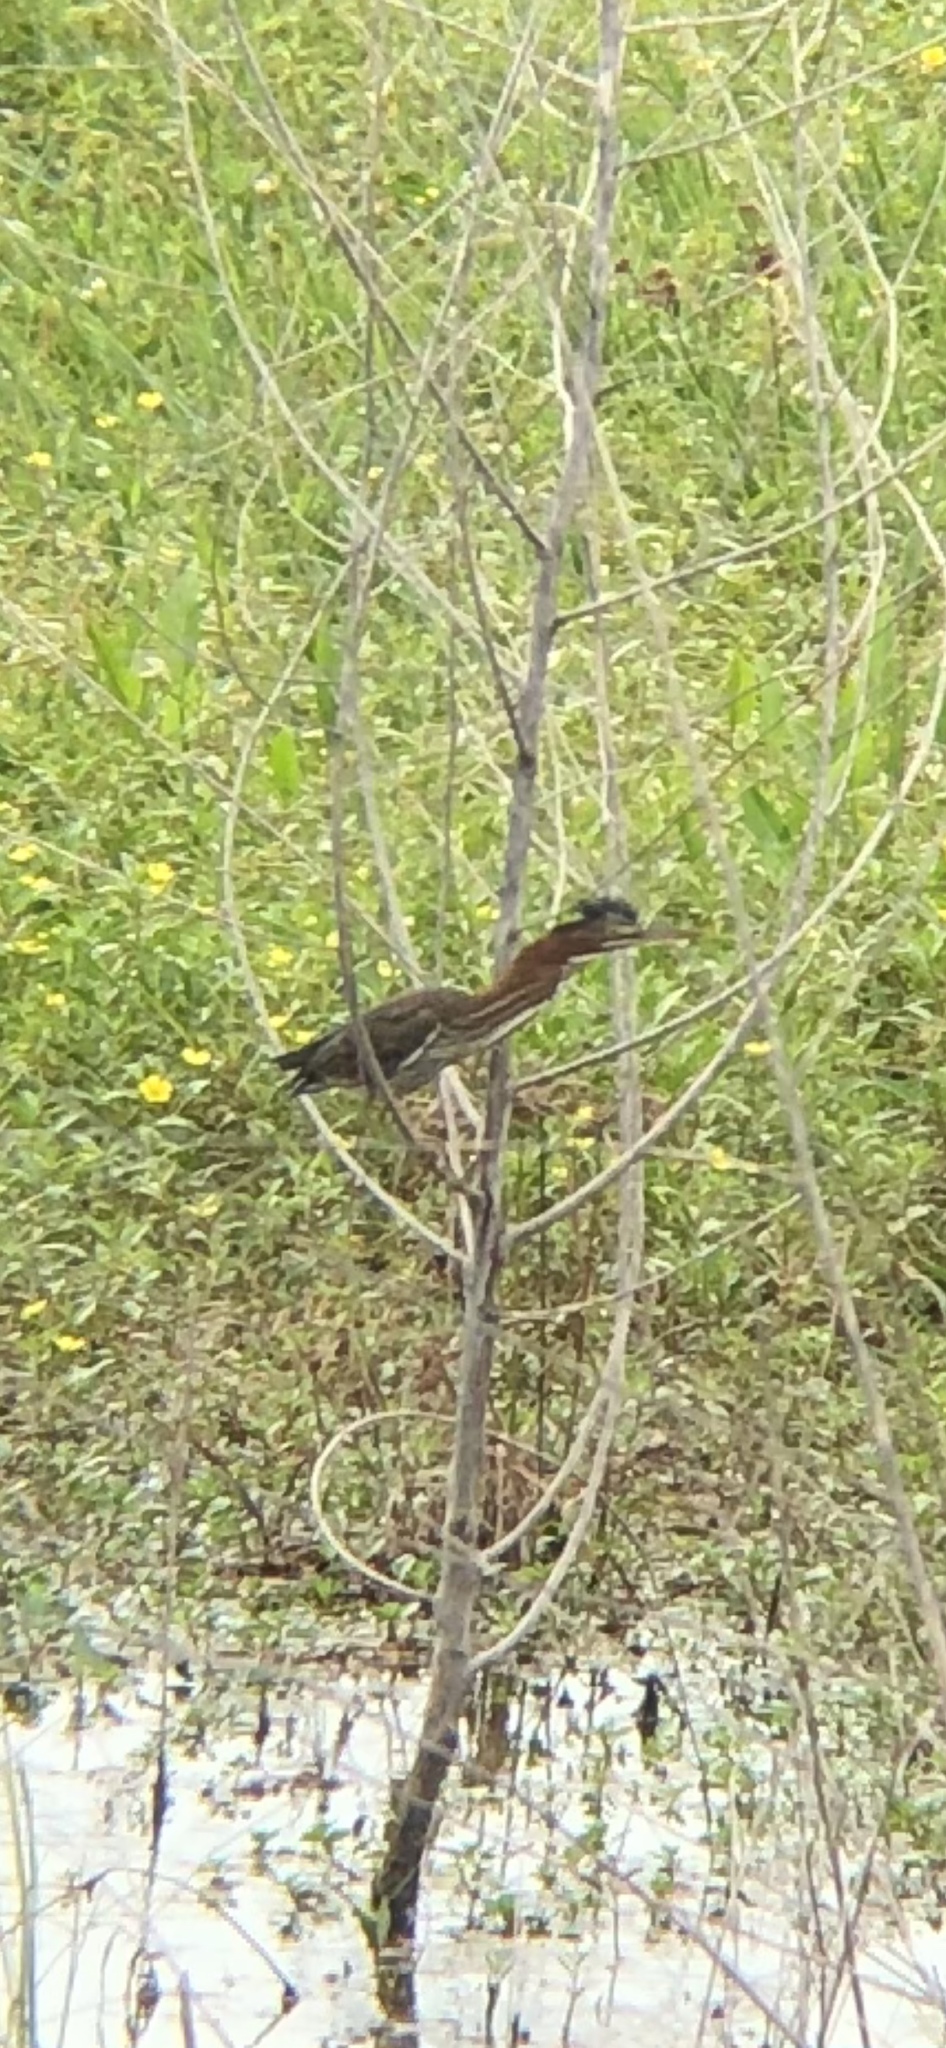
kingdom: Animalia
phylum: Chordata
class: Aves
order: Pelecaniformes
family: Ardeidae
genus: Butorides
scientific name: Butorides virescens
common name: Green heron
